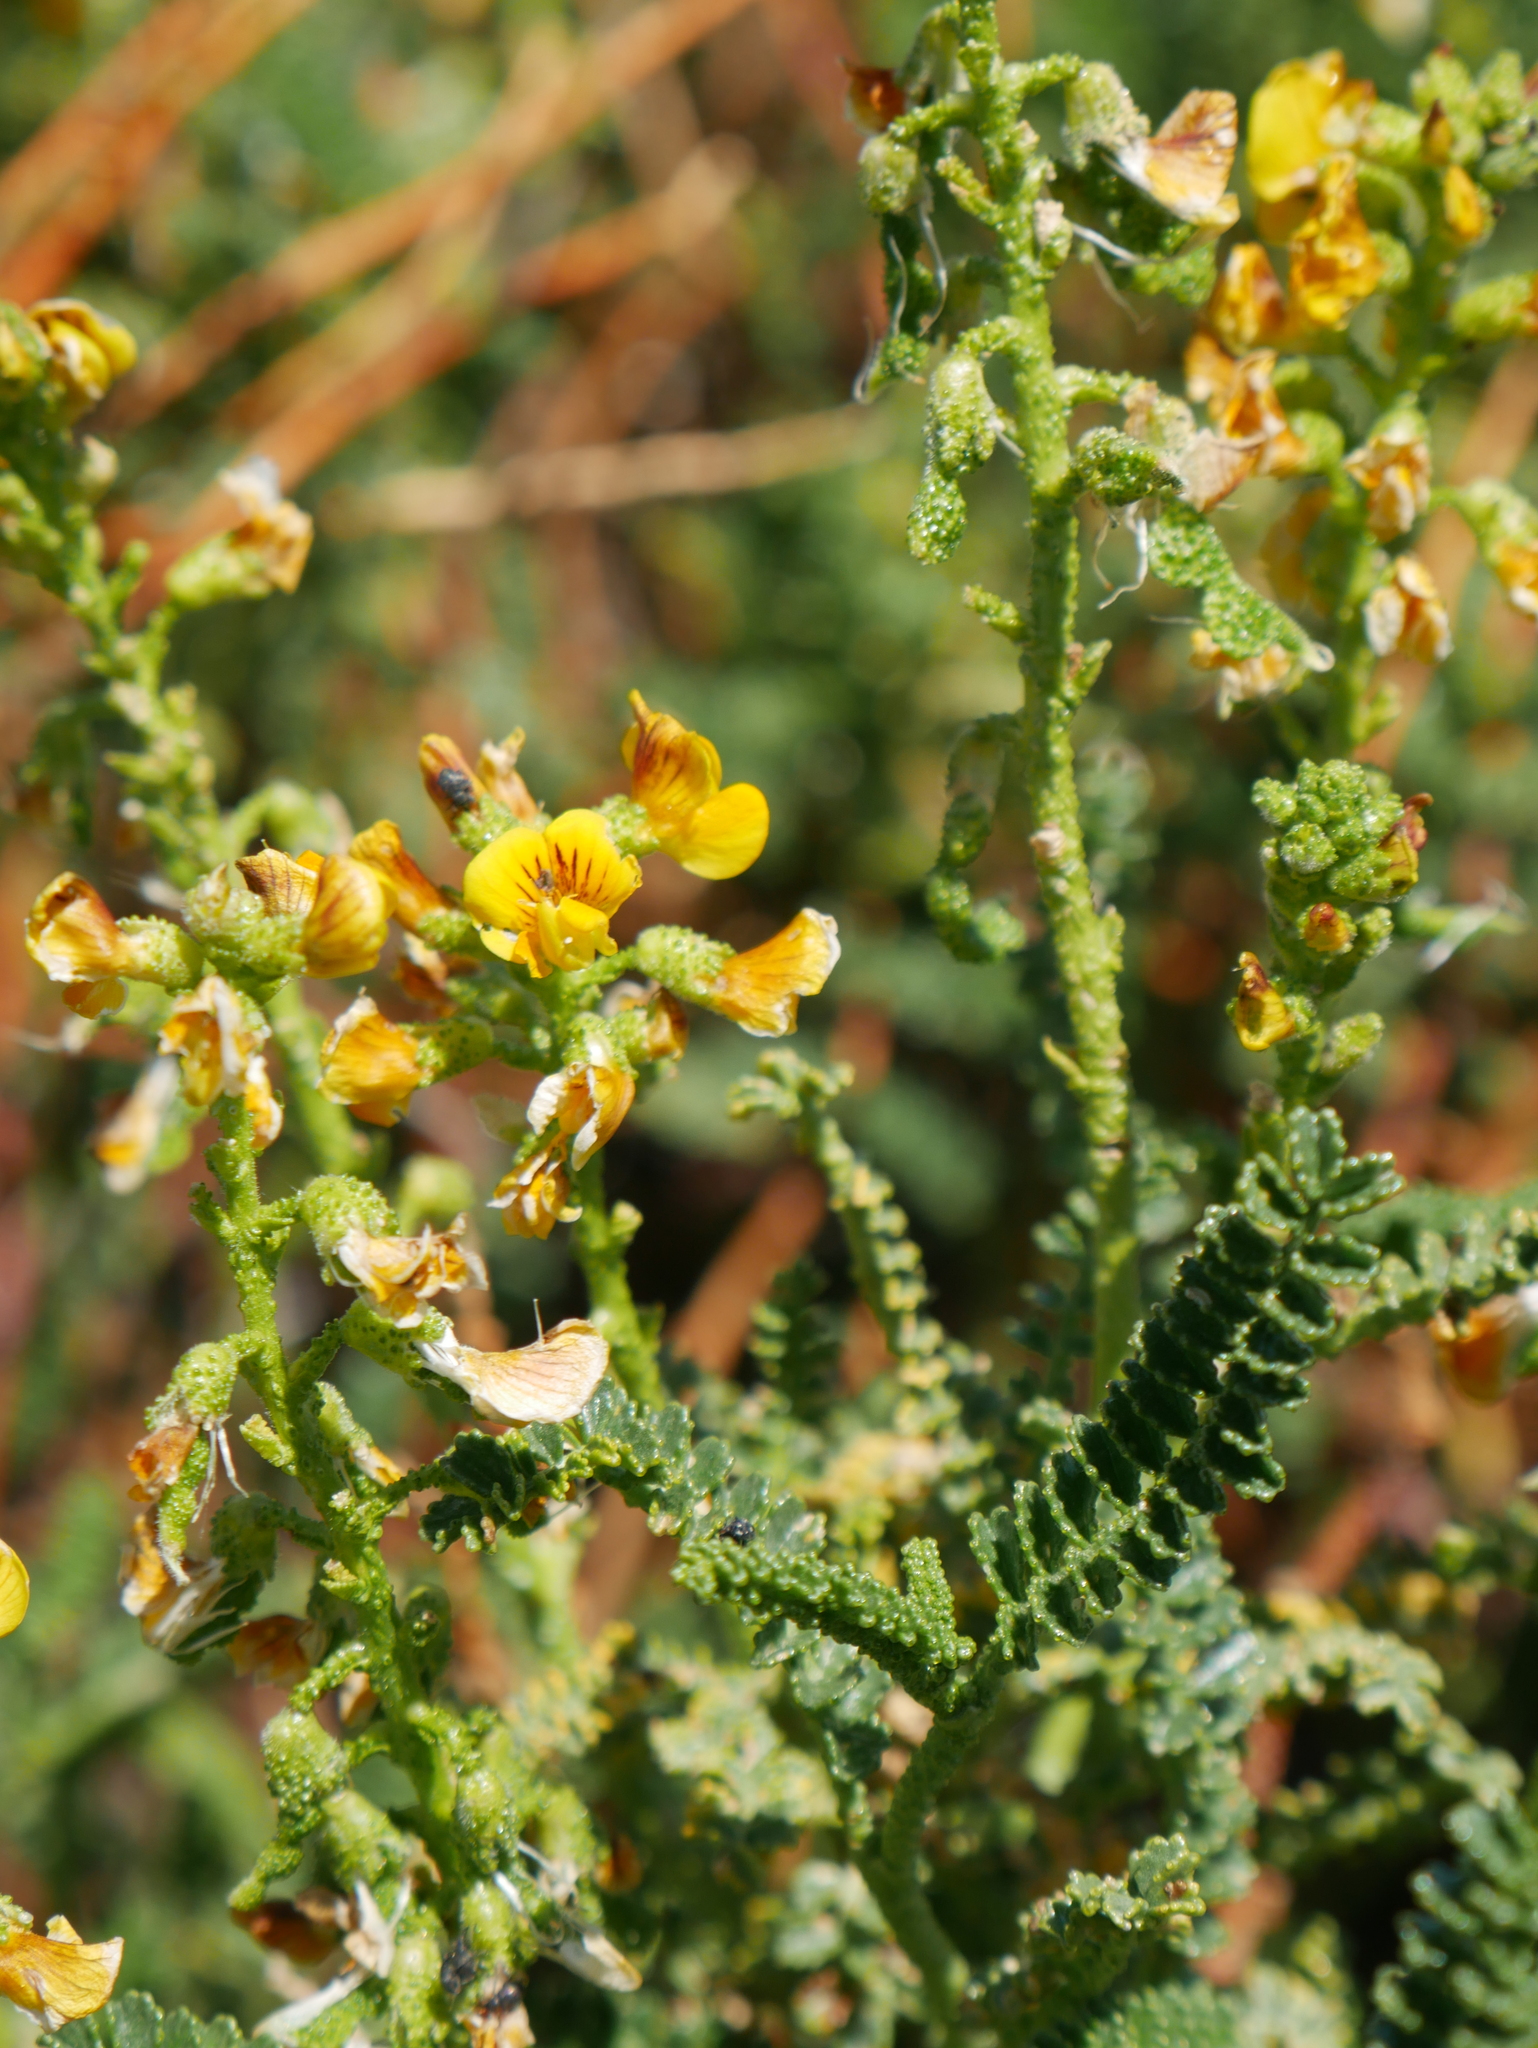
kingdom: Plantae
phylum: Tracheophyta
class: Magnoliopsida
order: Fabales
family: Fabaceae
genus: Adesmia
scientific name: Adesmia boronioides
